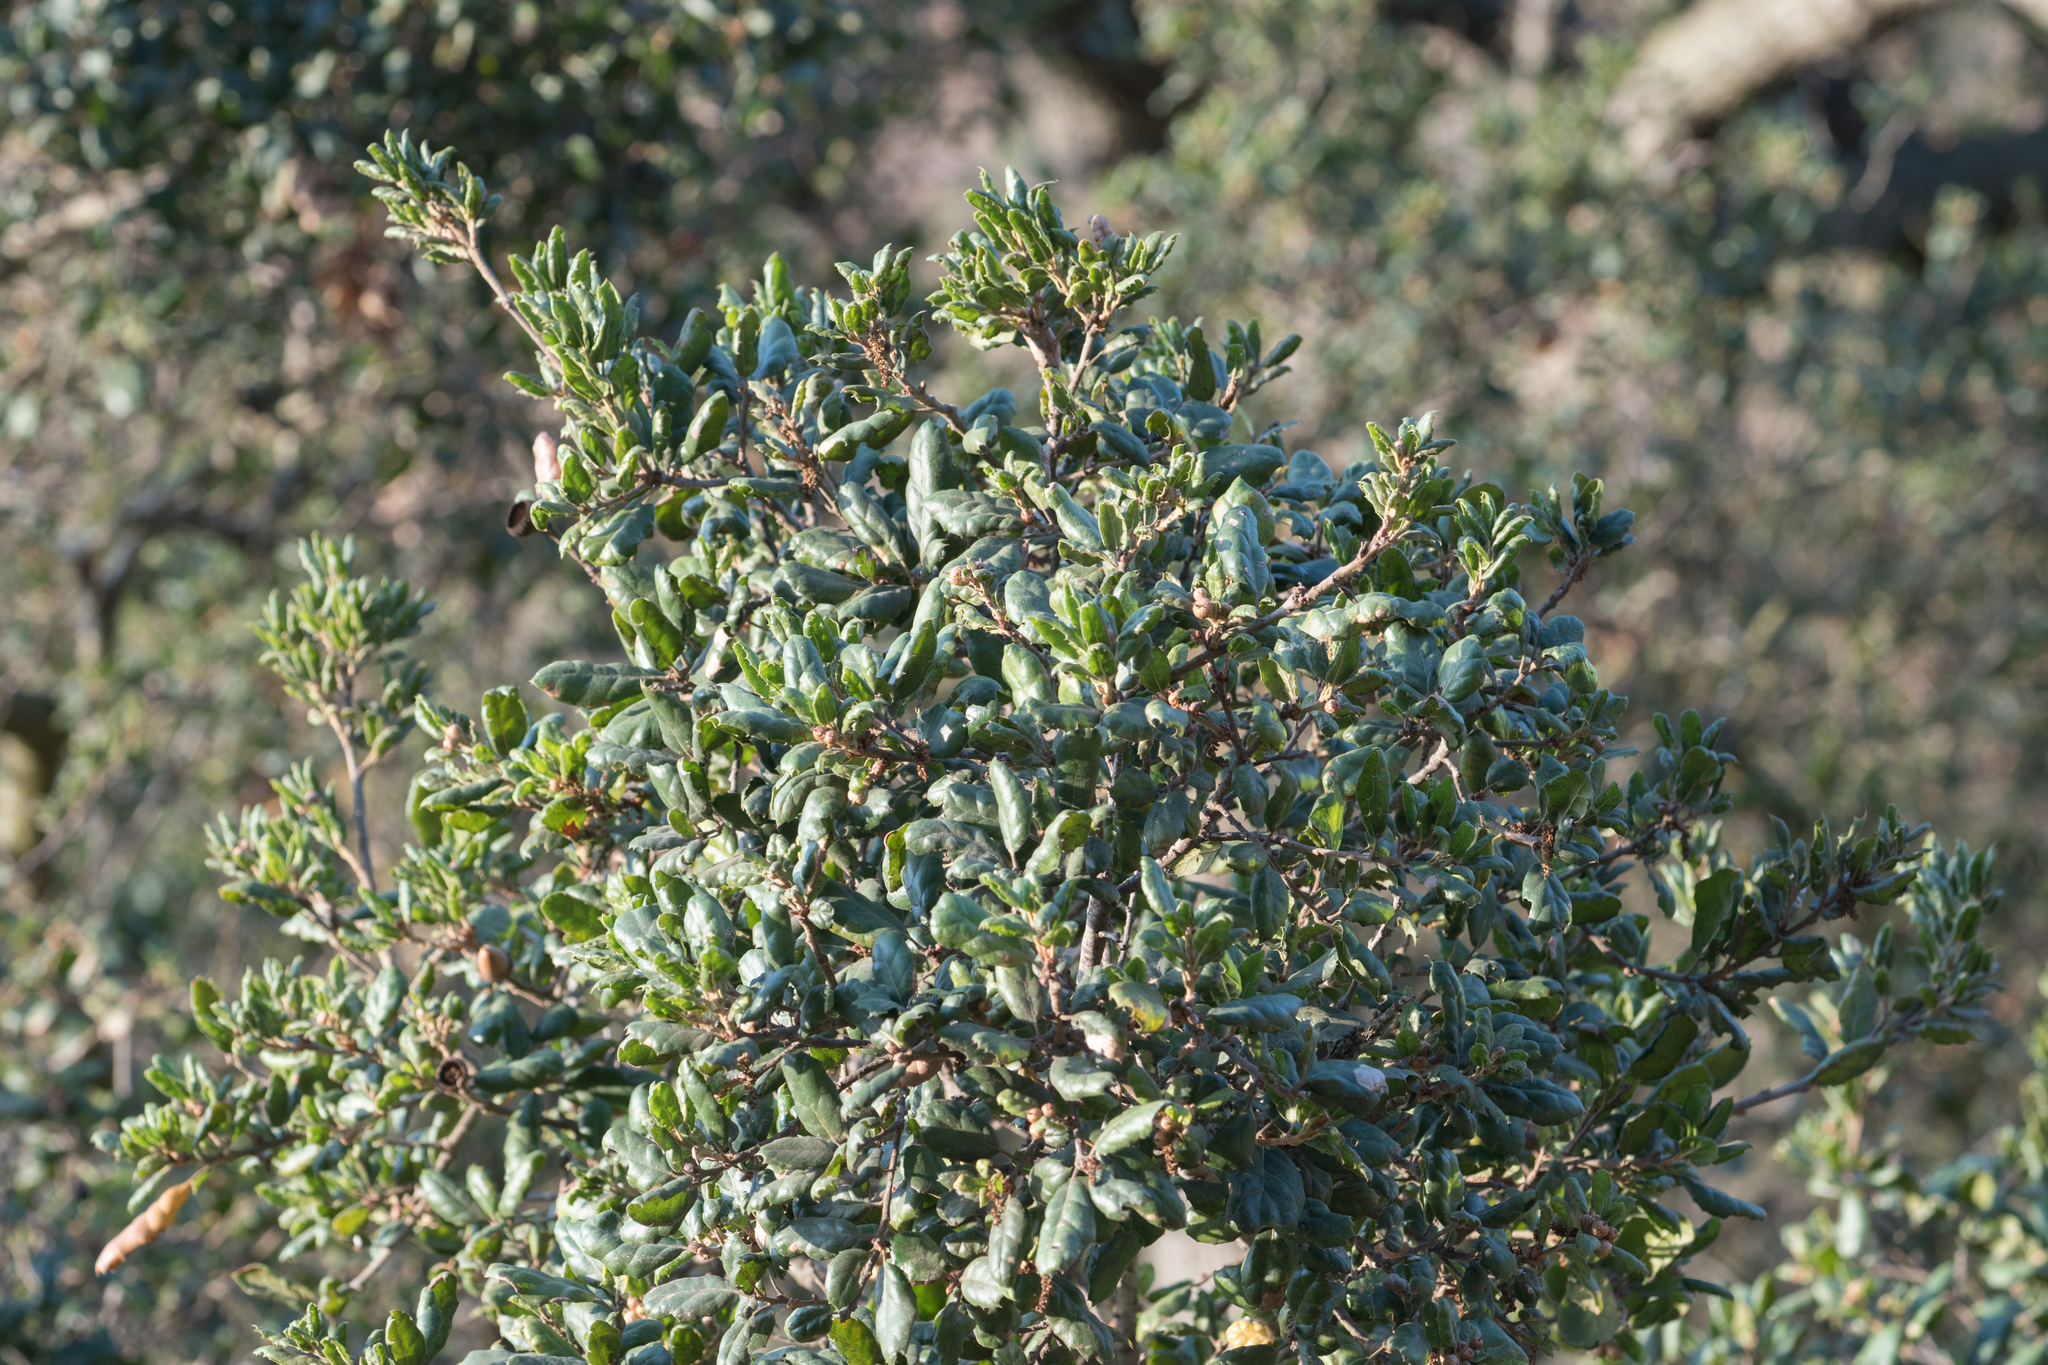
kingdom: Plantae
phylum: Tracheophyta
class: Magnoliopsida
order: Fagales
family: Fagaceae
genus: Quercus
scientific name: Quercus agrifolia
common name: California live oak
